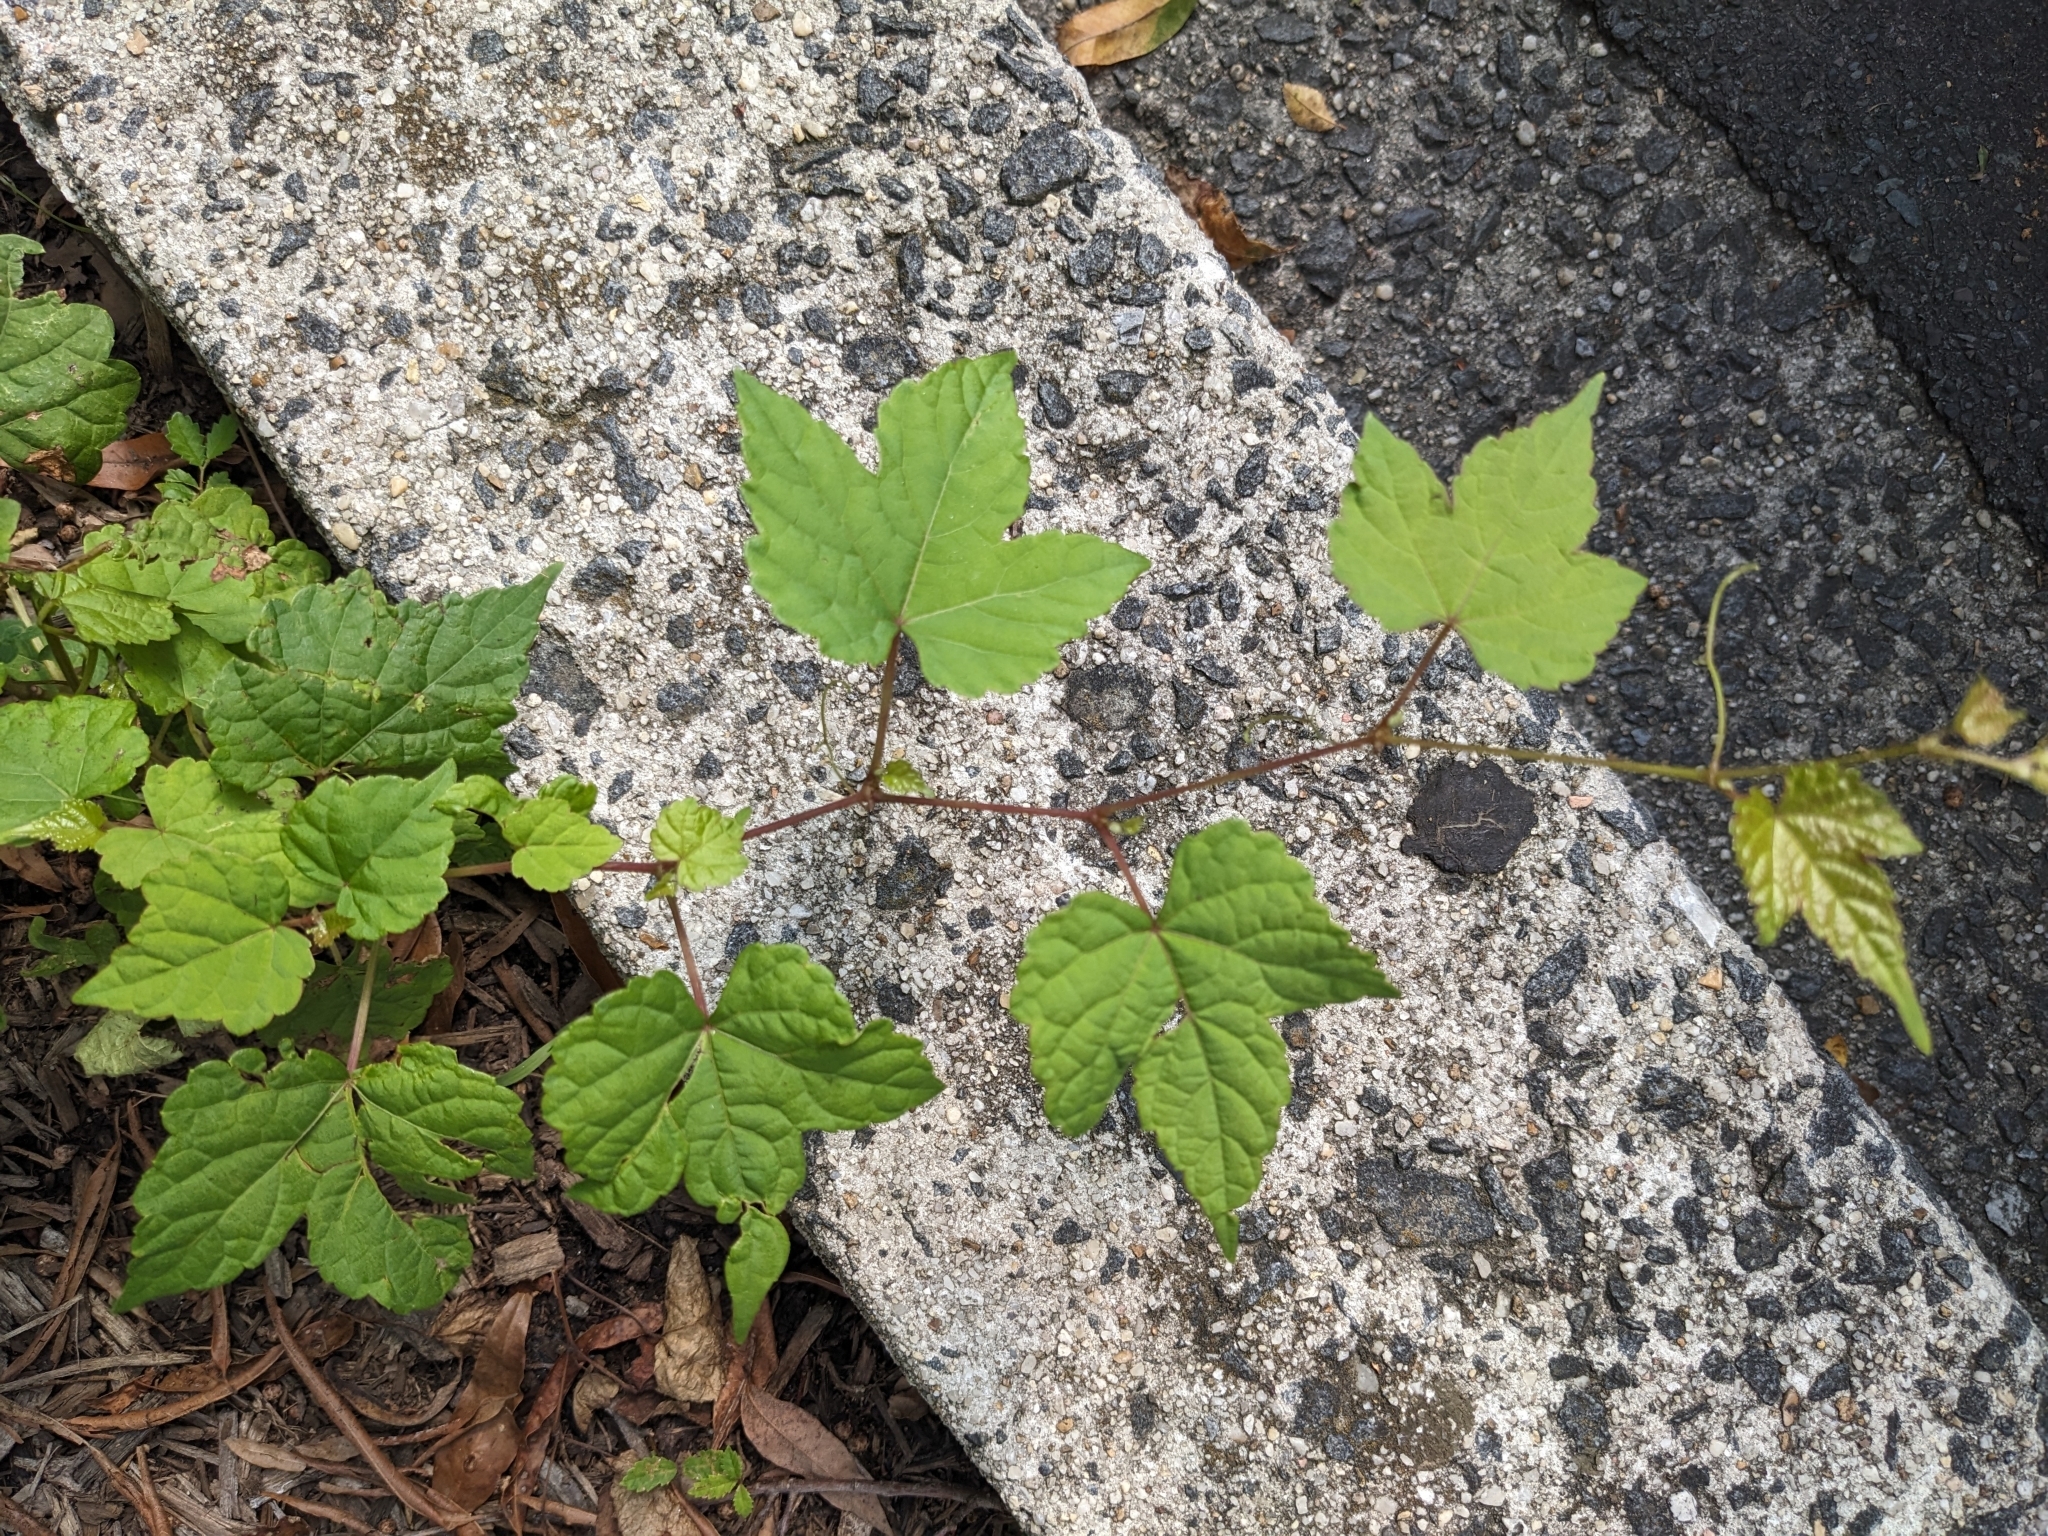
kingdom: Plantae
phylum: Tracheophyta
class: Magnoliopsida
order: Vitales
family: Vitaceae
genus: Ampelopsis
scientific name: Ampelopsis glandulosa
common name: Amur peppervine
